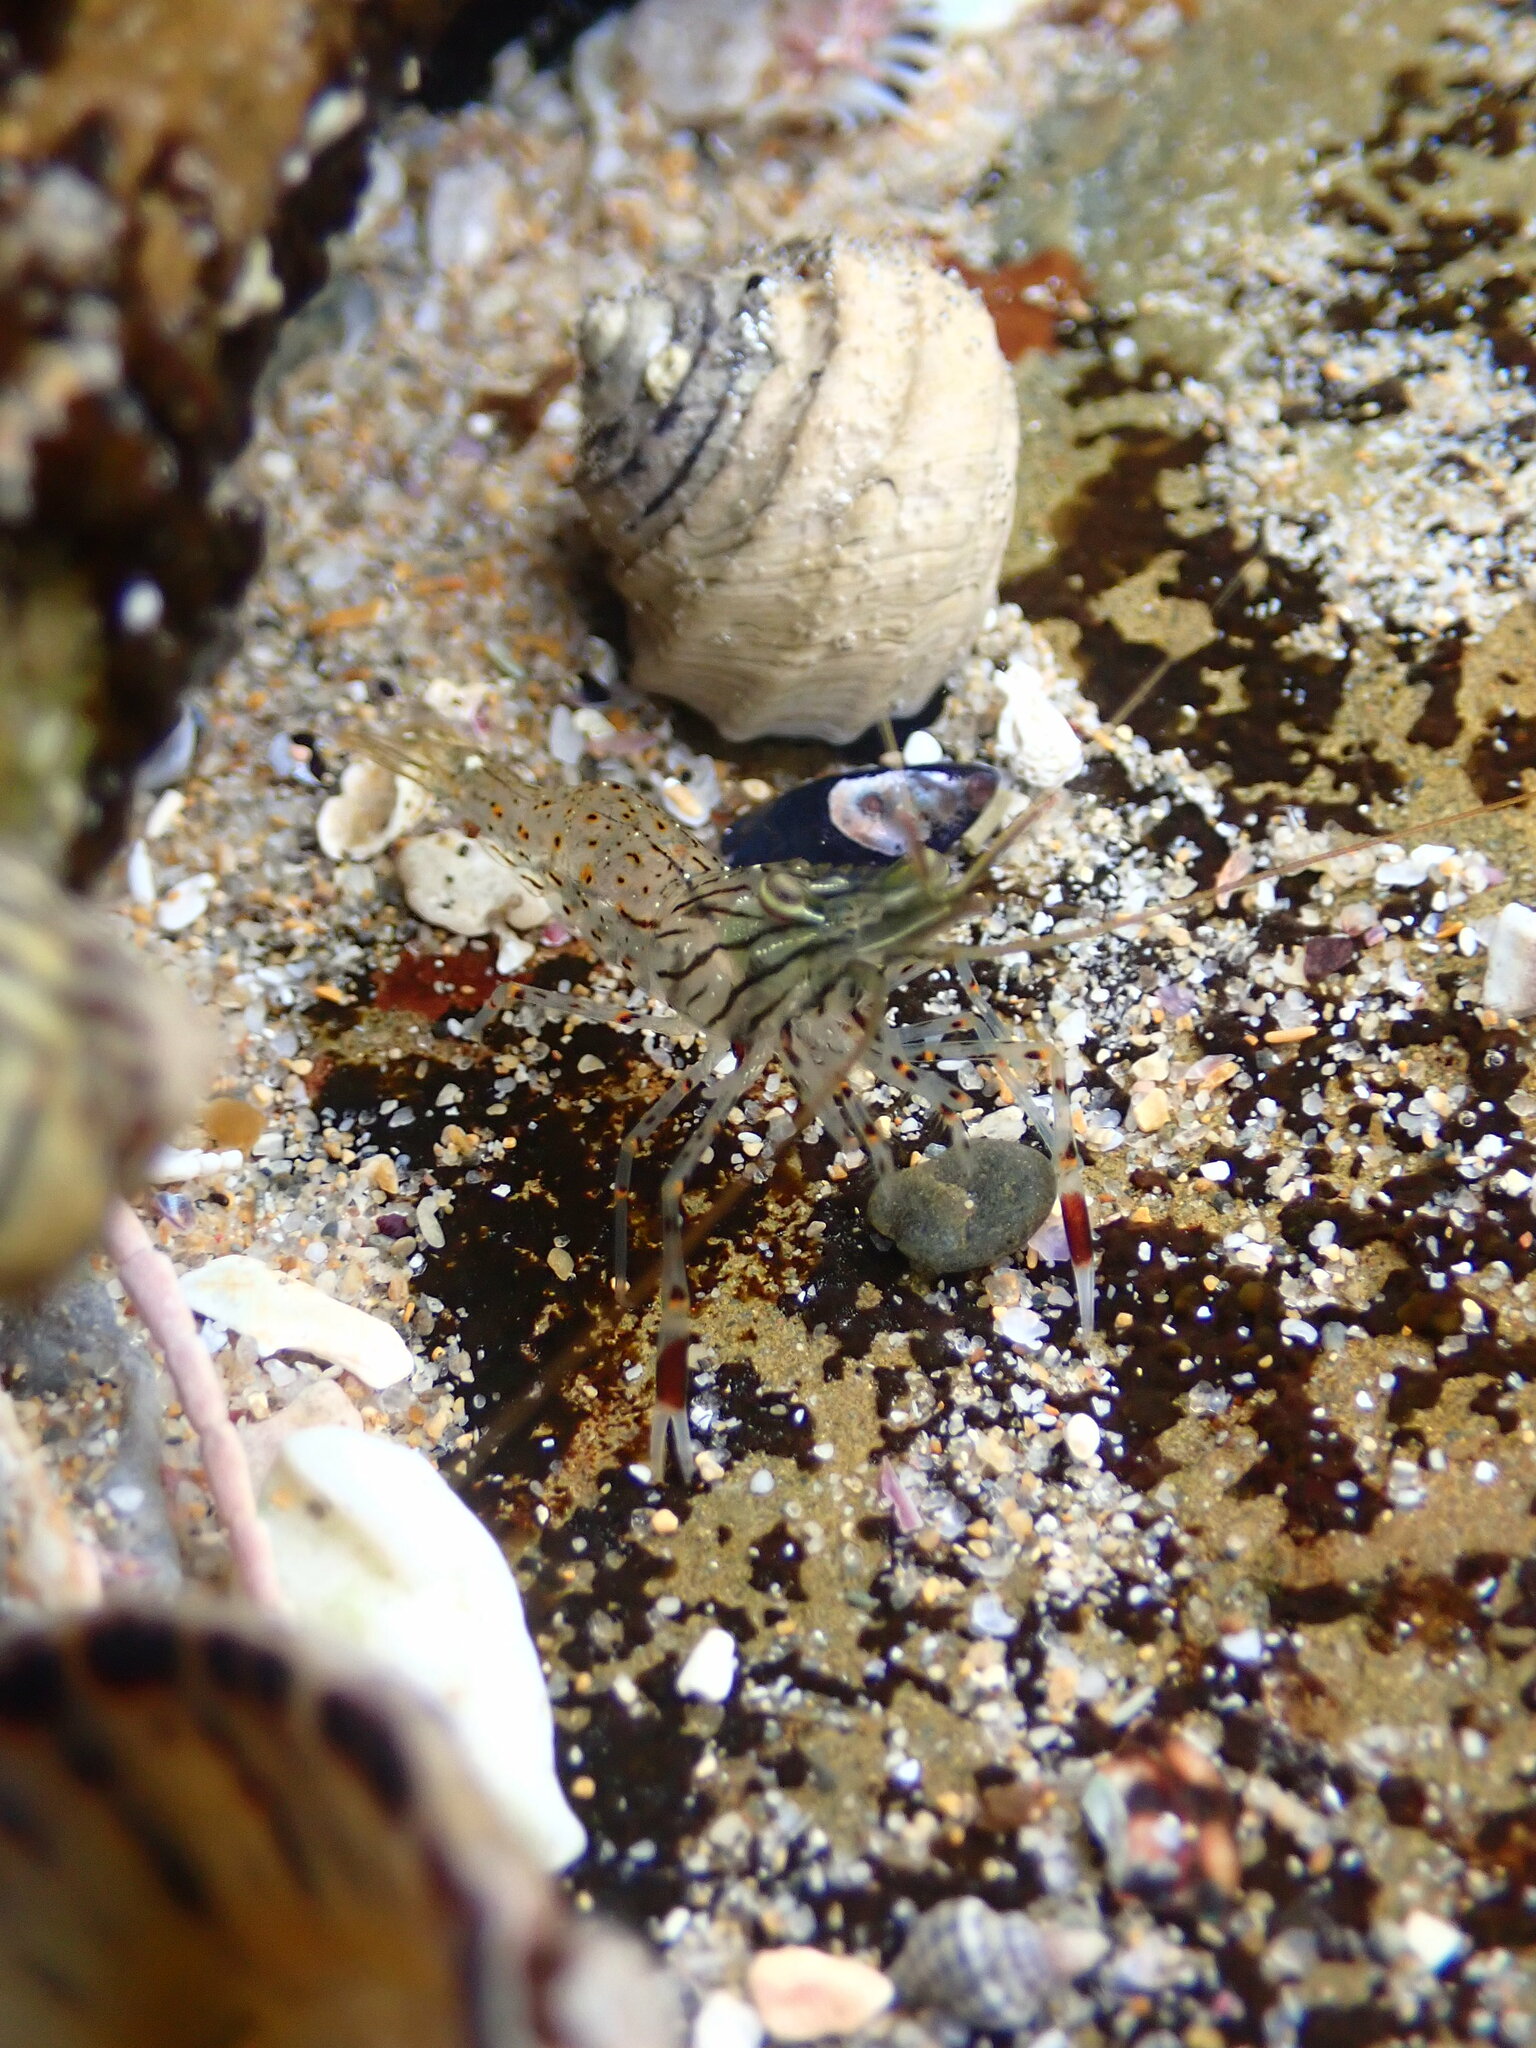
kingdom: Animalia
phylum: Arthropoda
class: Malacostraca
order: Decapoda
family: Palaemonidae
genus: Palaemon
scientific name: Palaemon serenus
